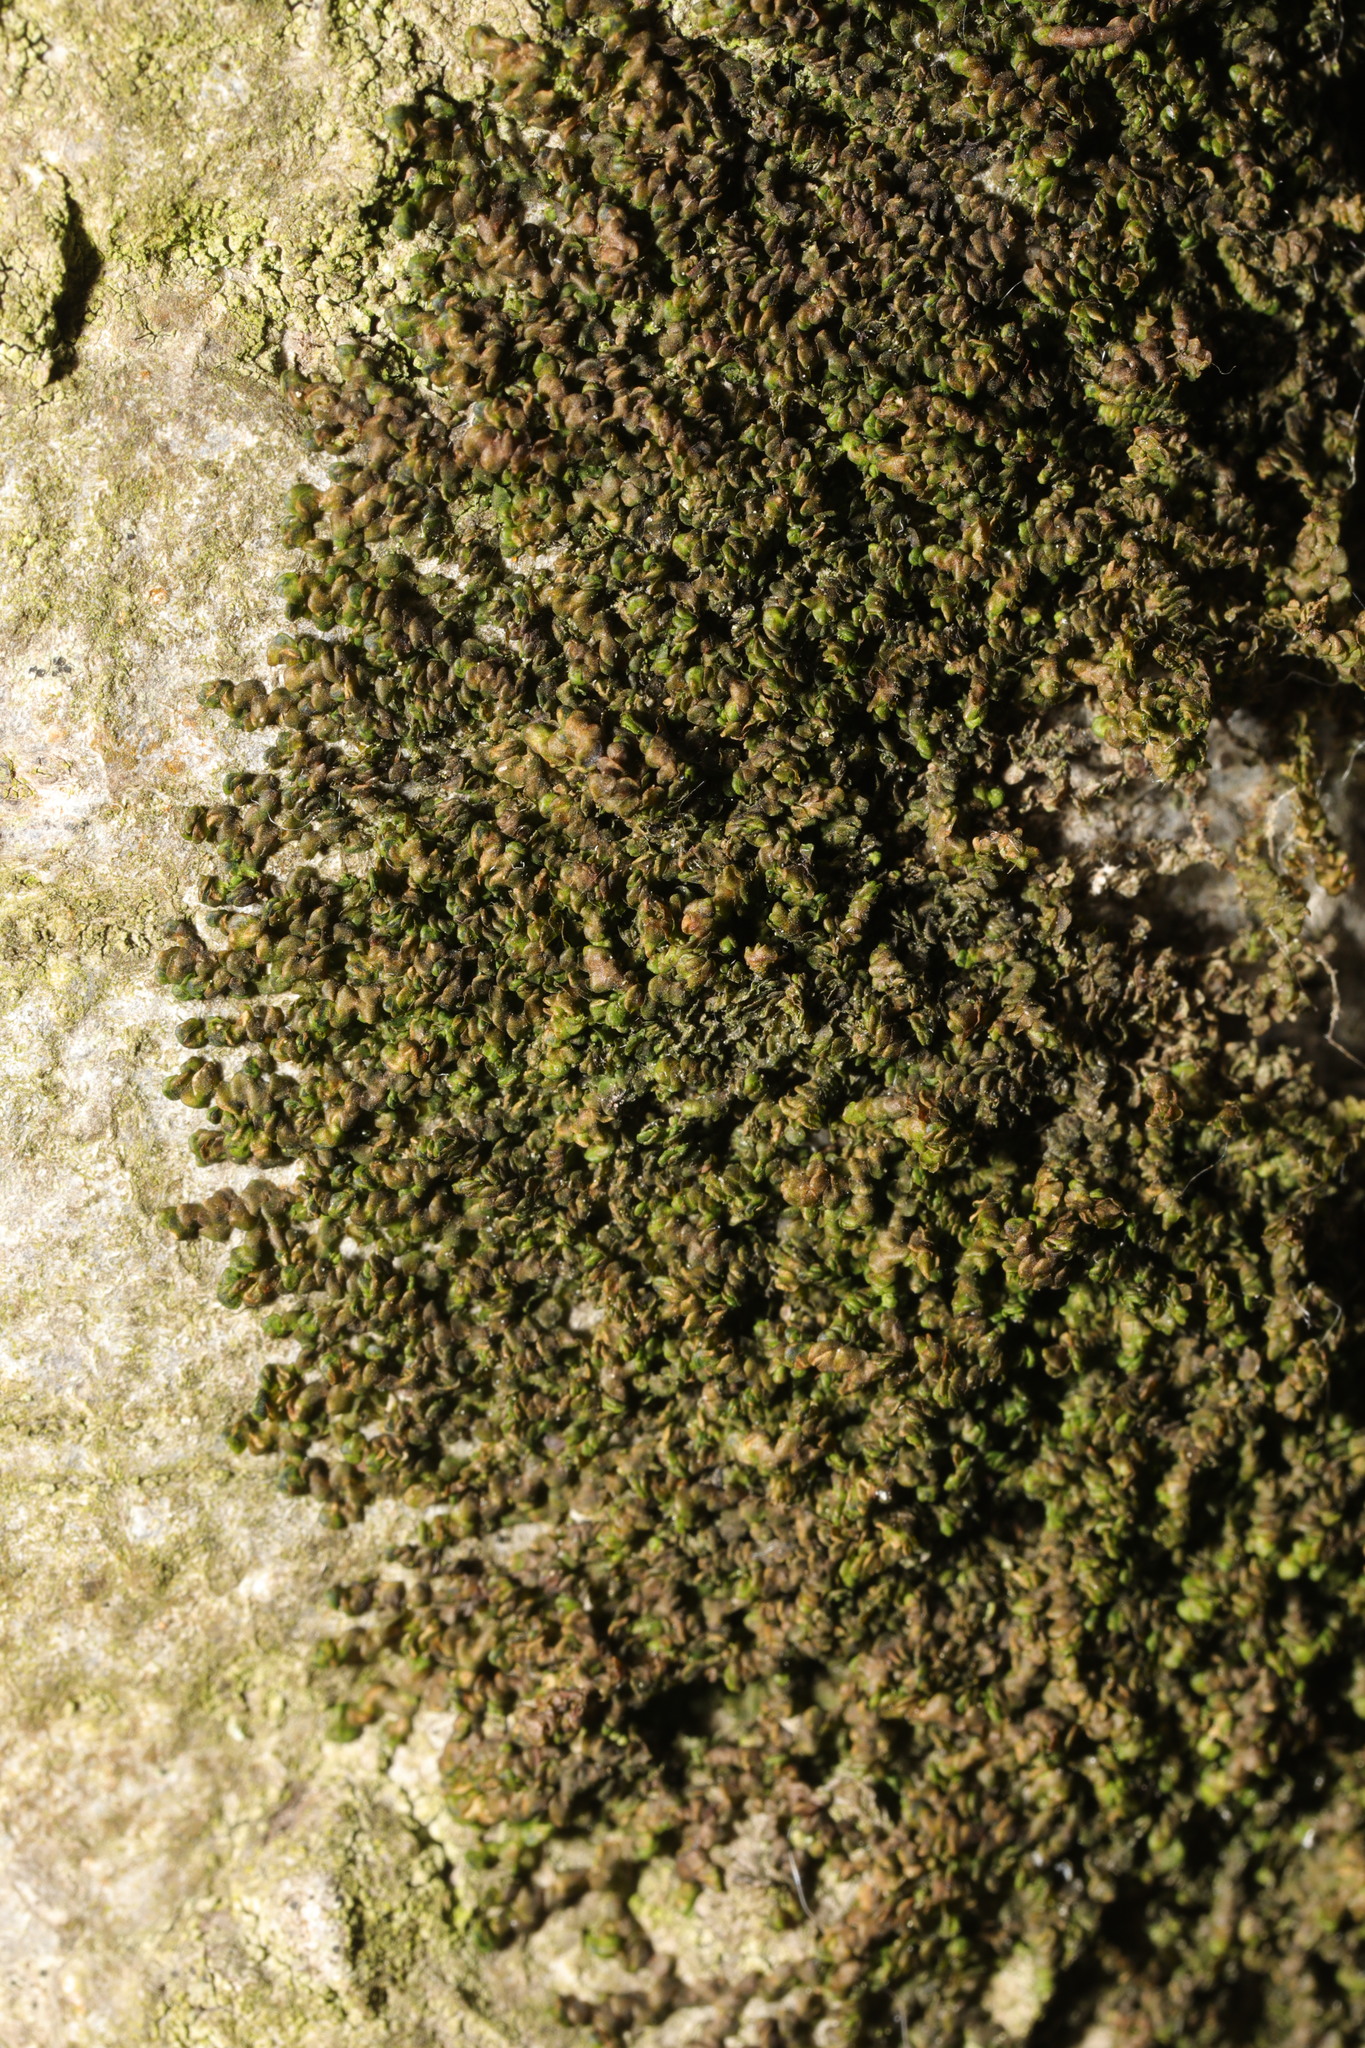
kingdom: Plantae
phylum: Marchantiophyta
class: Jungermanniopsida
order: Porellales
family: Frullaniaceae
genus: Frullania
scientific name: Frullania dilatata
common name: Dilated scalewort
